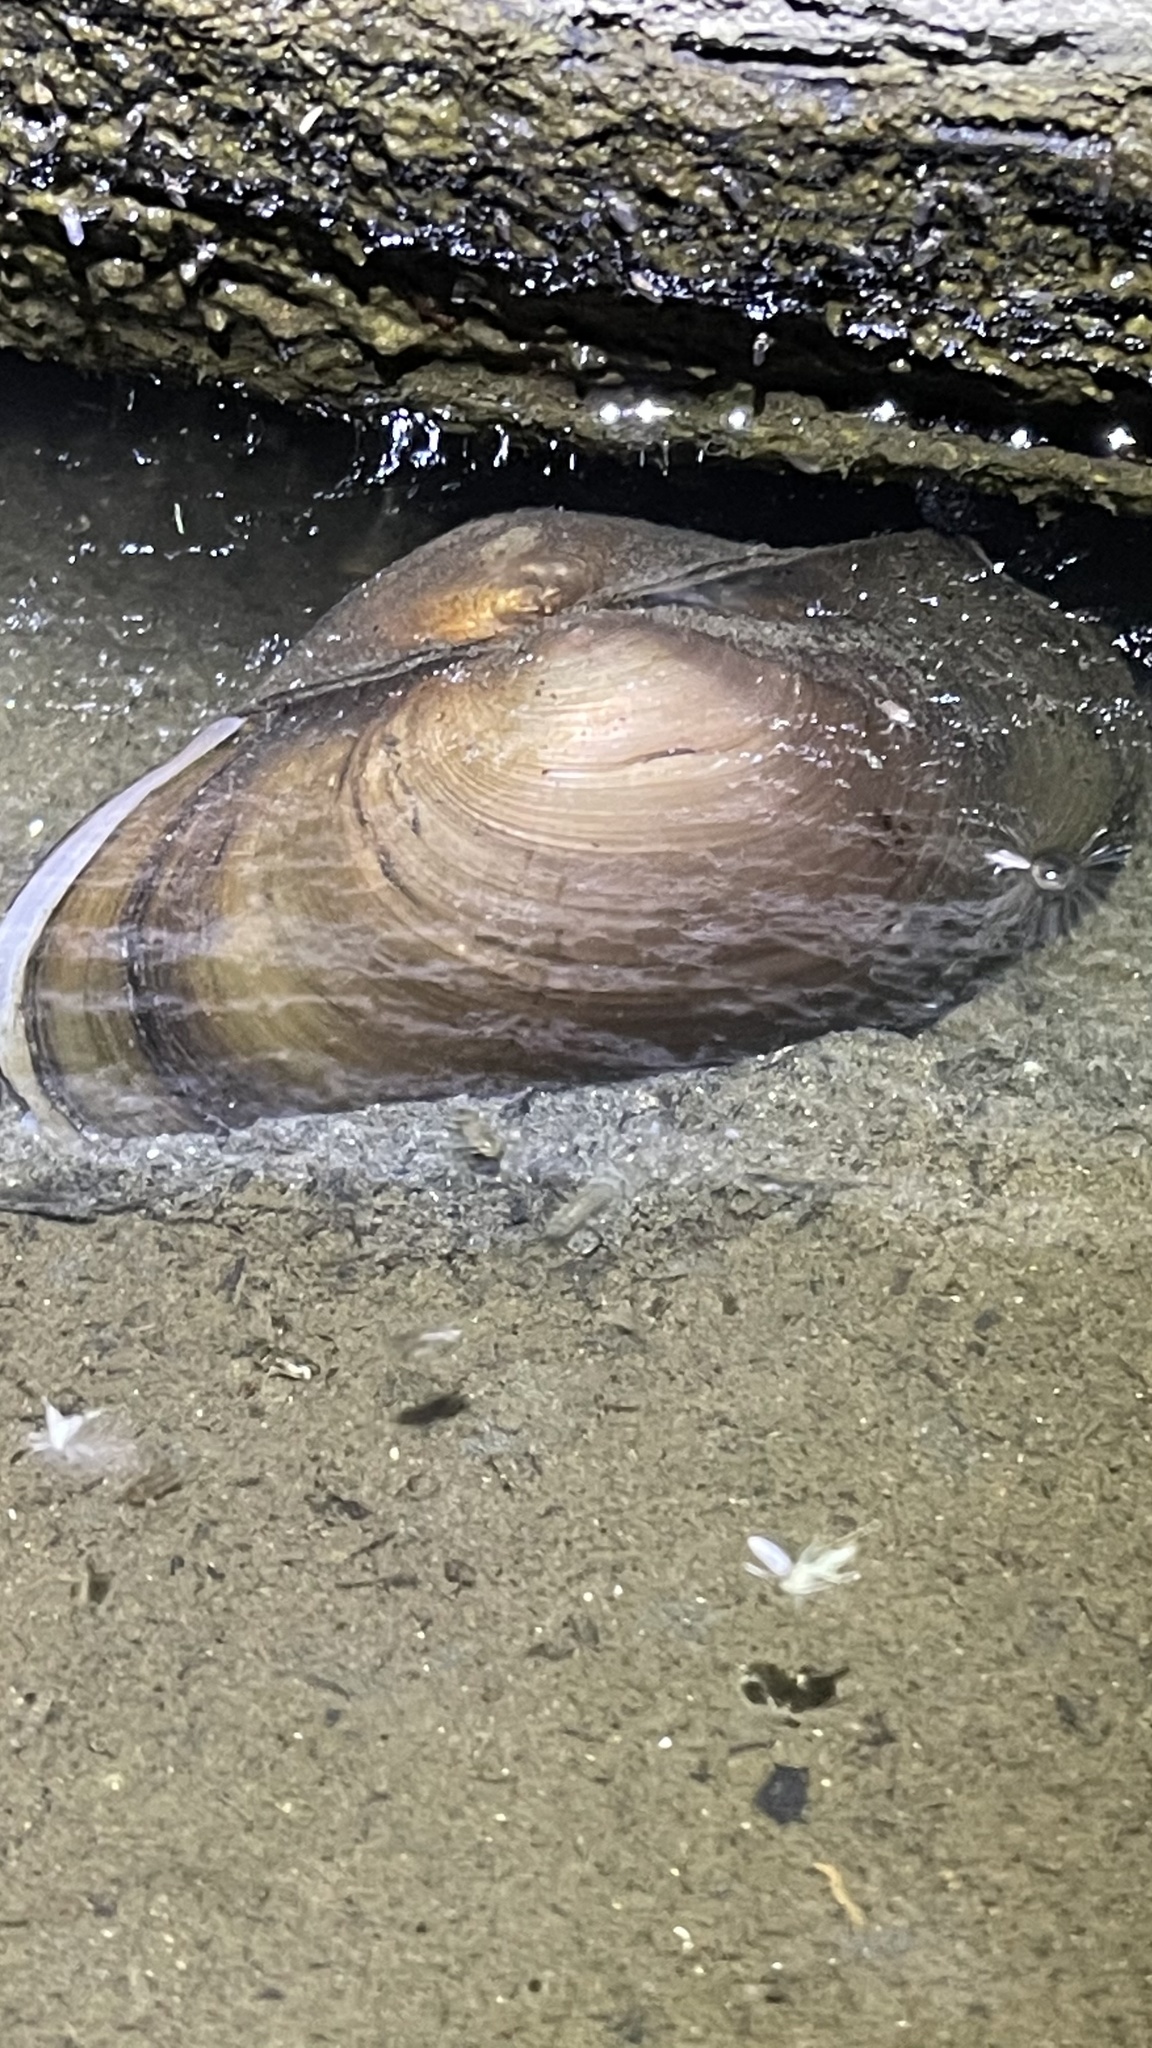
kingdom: Animalia
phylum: Mollusca
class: Bivalvia
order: Unionida
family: Unionidae
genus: Pyganodon
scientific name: Pyganodon grandis
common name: Giant floater
